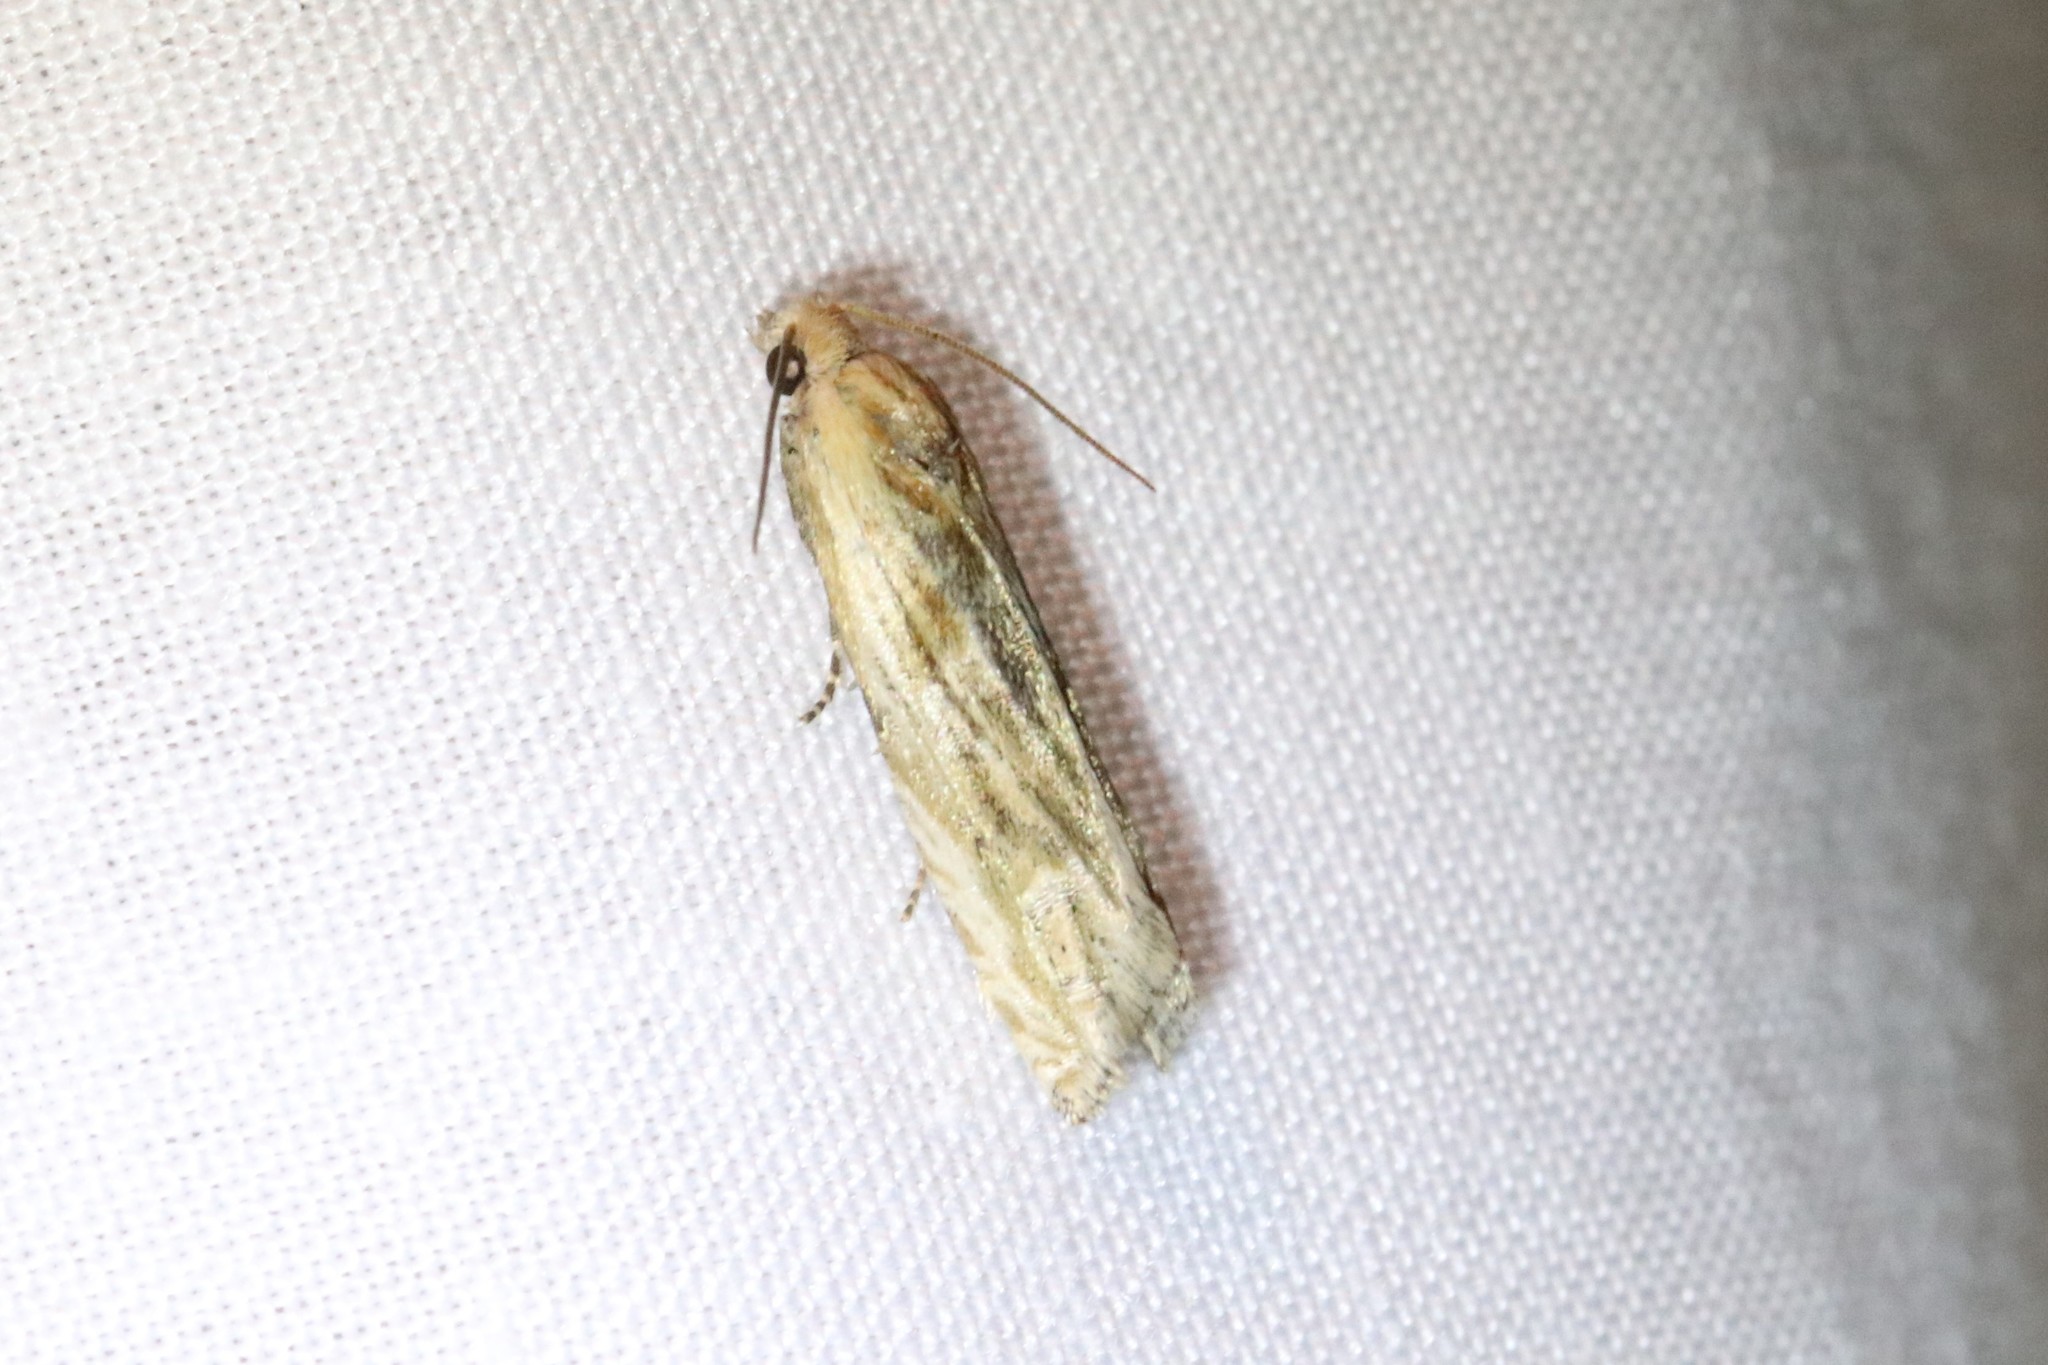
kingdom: Animalia
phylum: Arthropoda
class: Insecta
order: Lepidoptera
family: Tortricidae
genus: Eucosma
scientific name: Eucosma olivaceana
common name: Olivaceous eucosma moth
